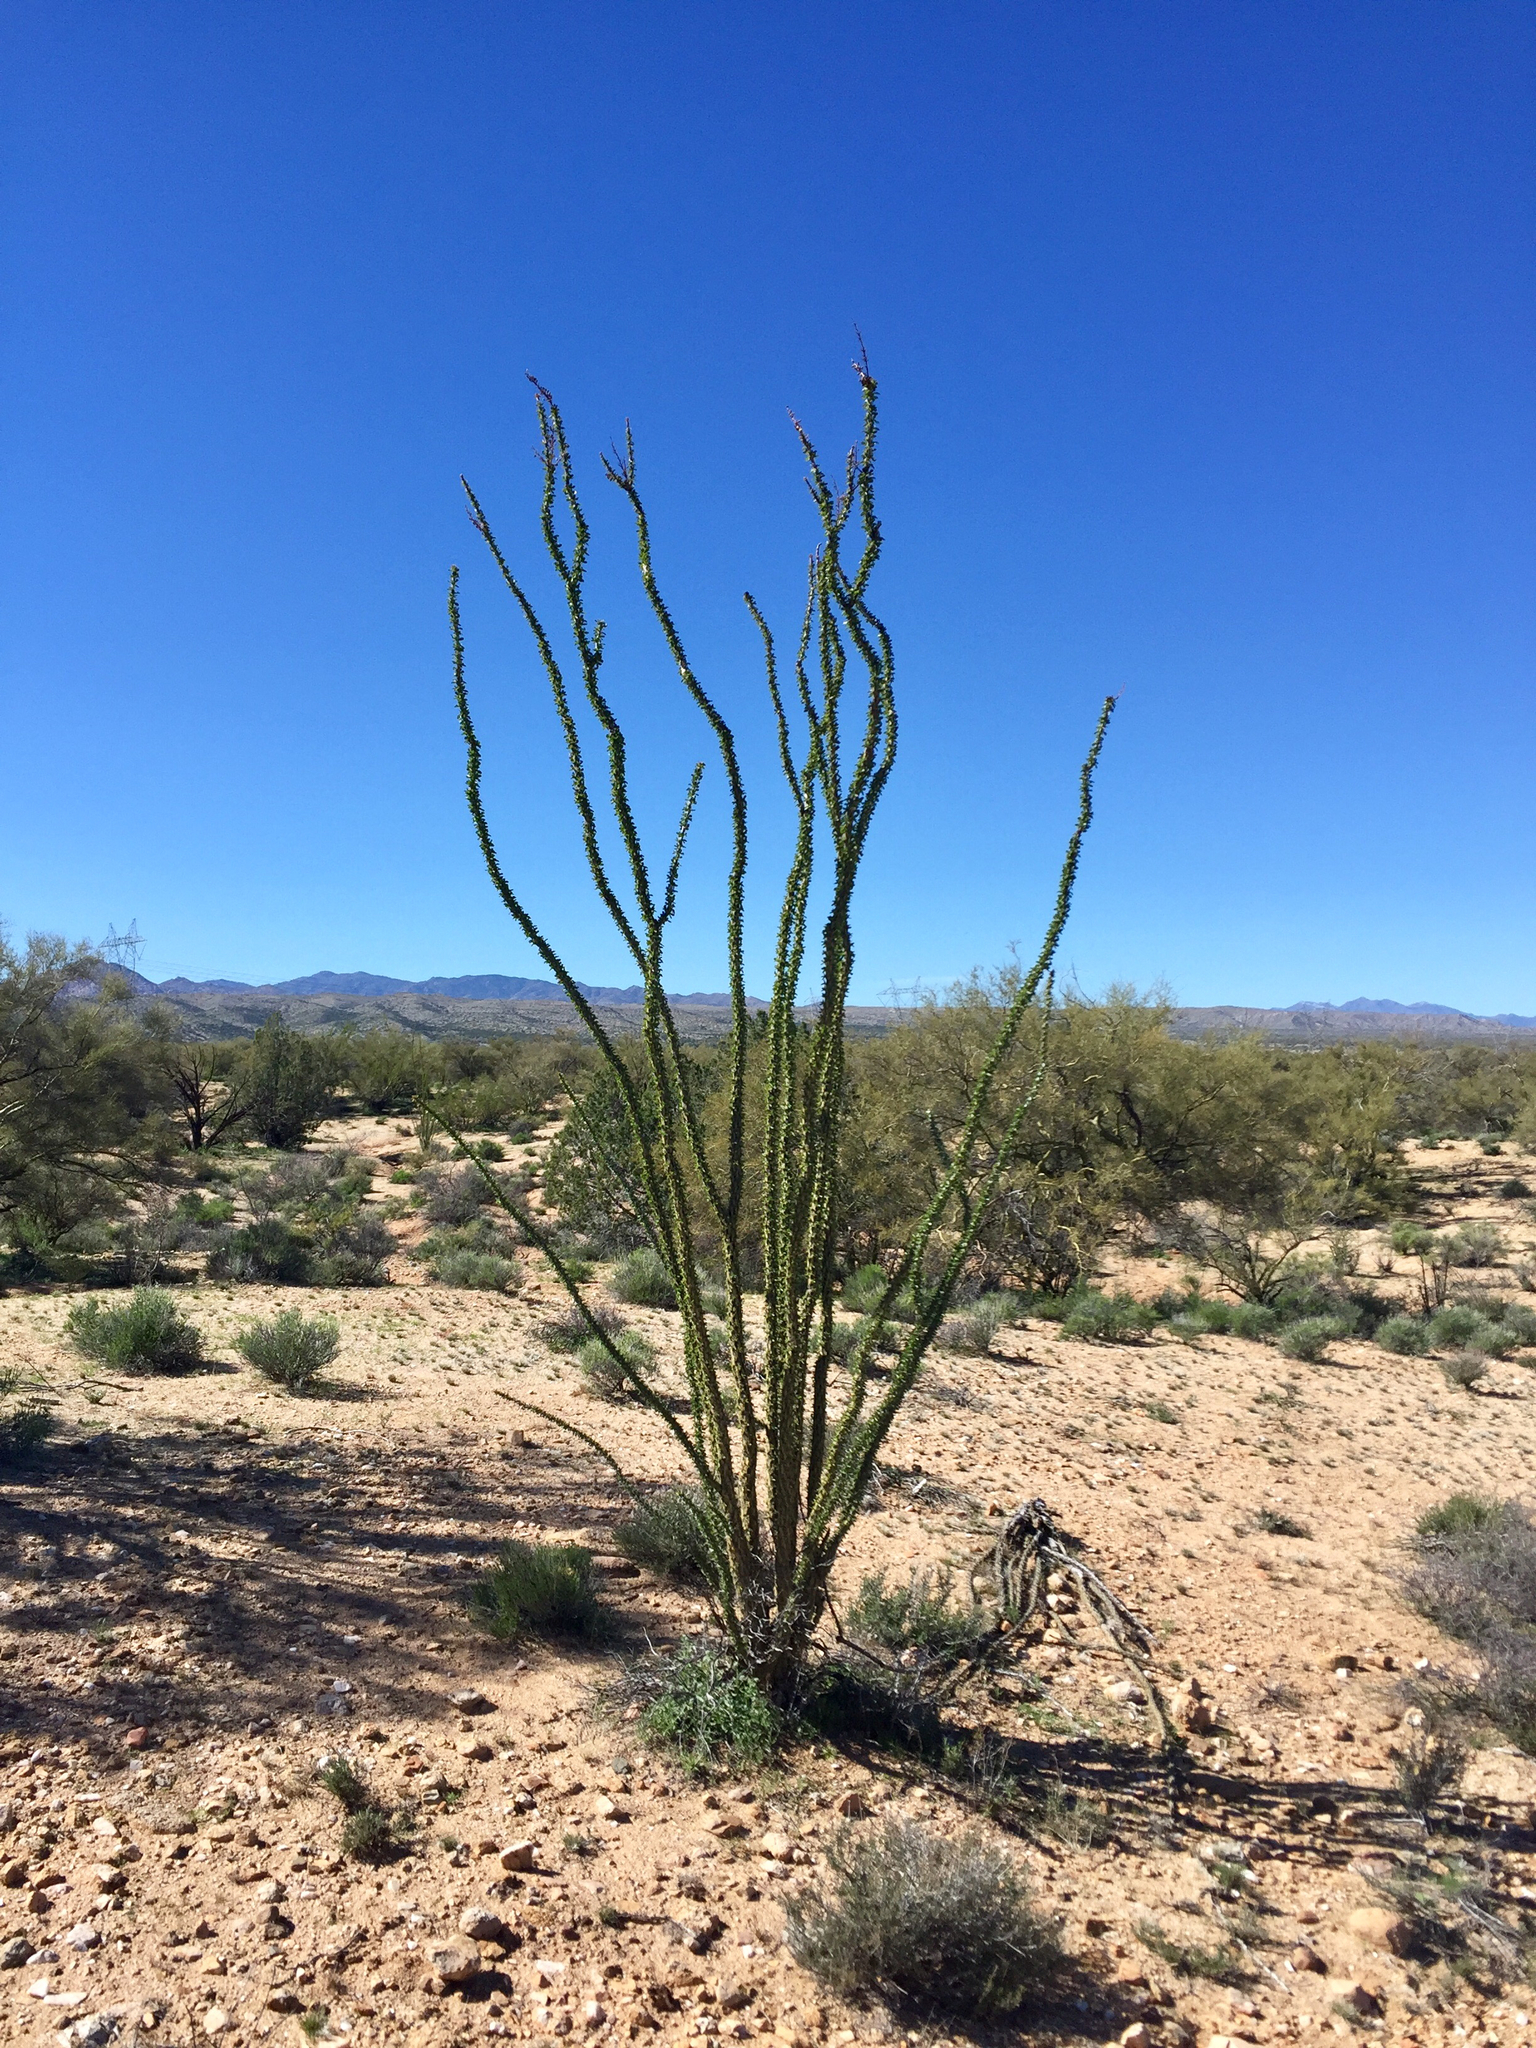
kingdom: Plantae
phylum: Tracheophyta
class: Magnoliopsida
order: Ericales
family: Fouquieriaceae
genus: Fouquieria
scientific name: Fouquieria splendens
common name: Vine-cactus
